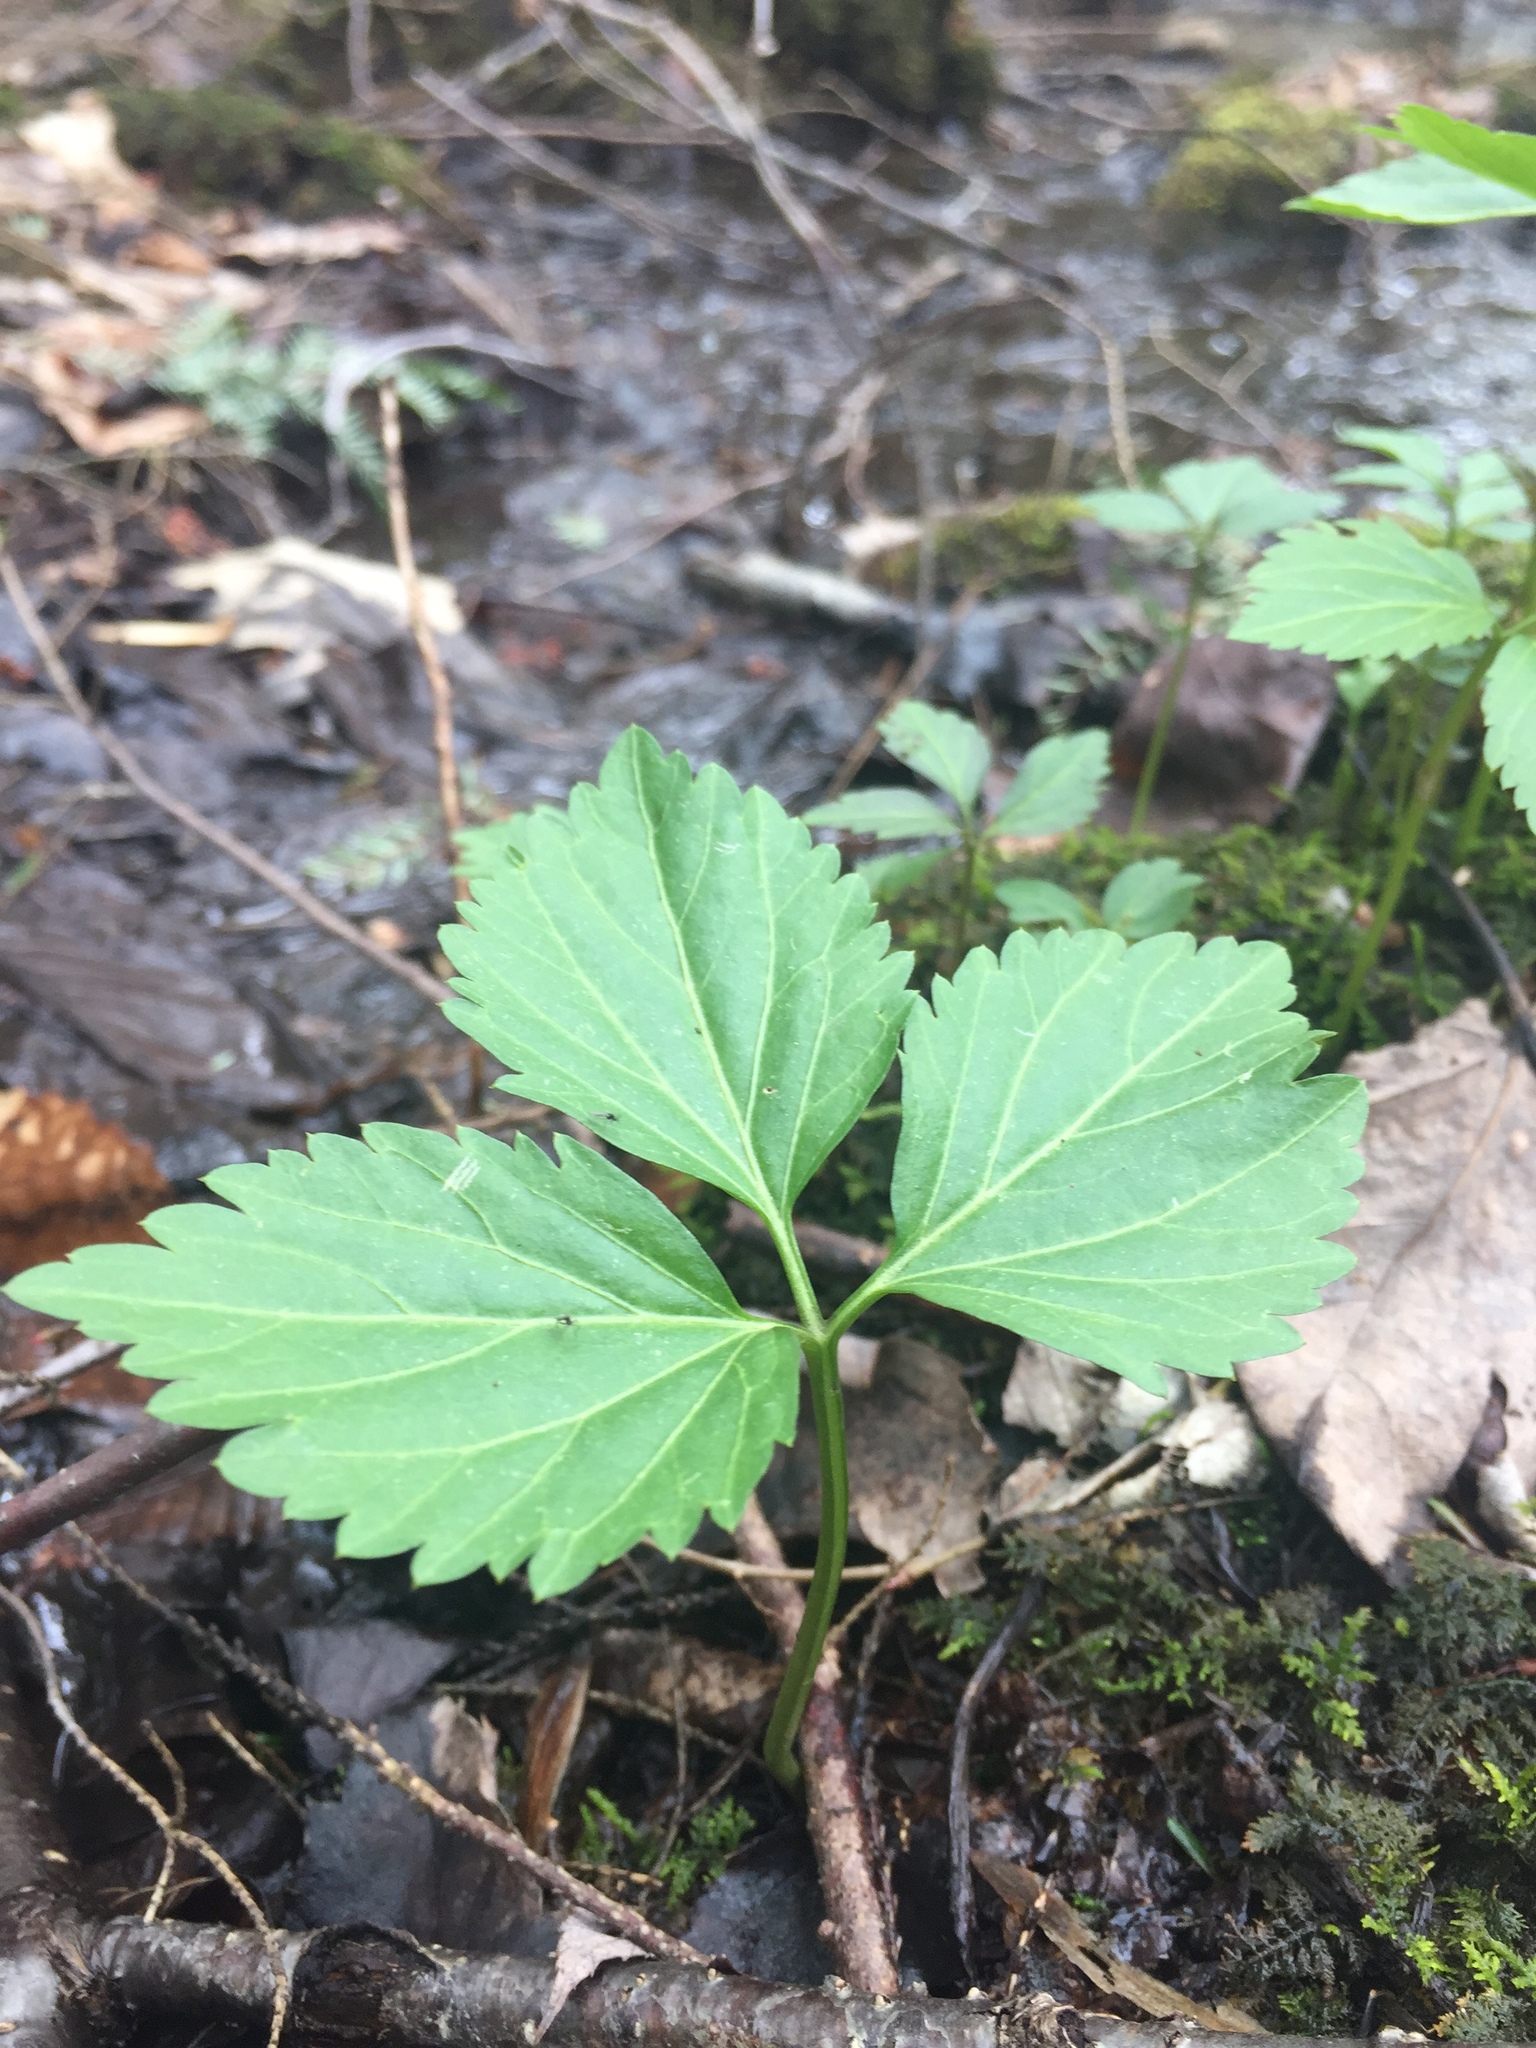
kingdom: Plantae
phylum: Tracheophyta
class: Magnoliopsida
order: Brassicales
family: Brassicaceae
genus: Cardamine
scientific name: Cardamine diphylla
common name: Broad-leaved toothwort
